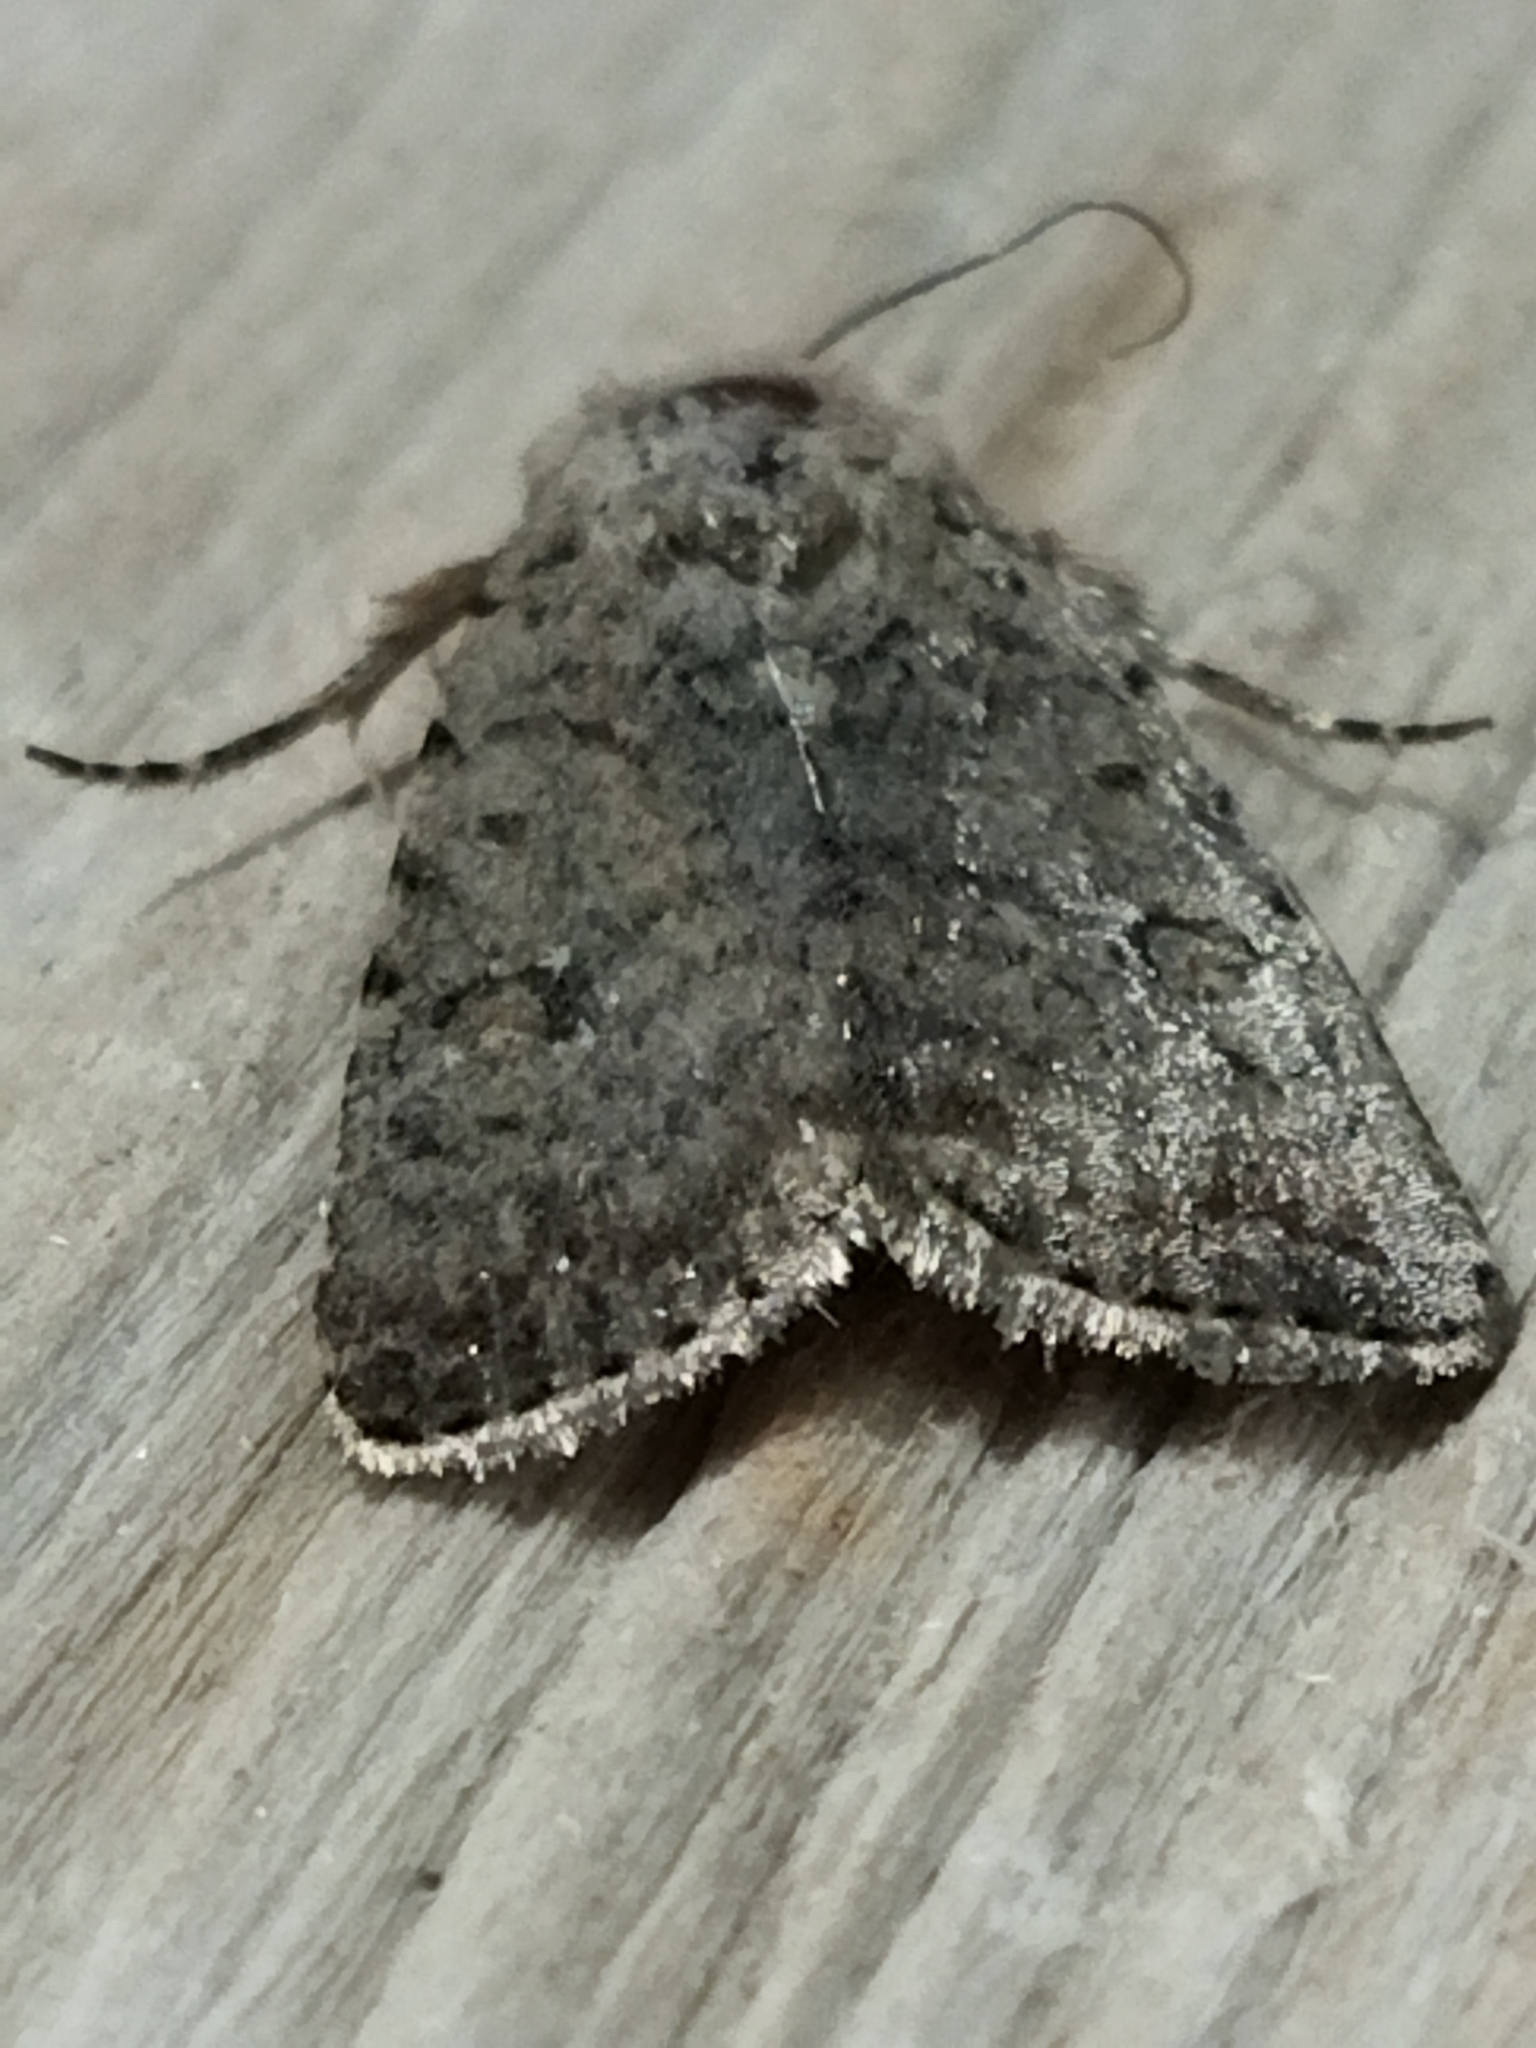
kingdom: Animalia
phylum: Arthropoda
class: Insecta
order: Lepidoptera
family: Noctuidae
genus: Caradrina
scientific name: Caradrina clavipalpis
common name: Pale mottled willow
